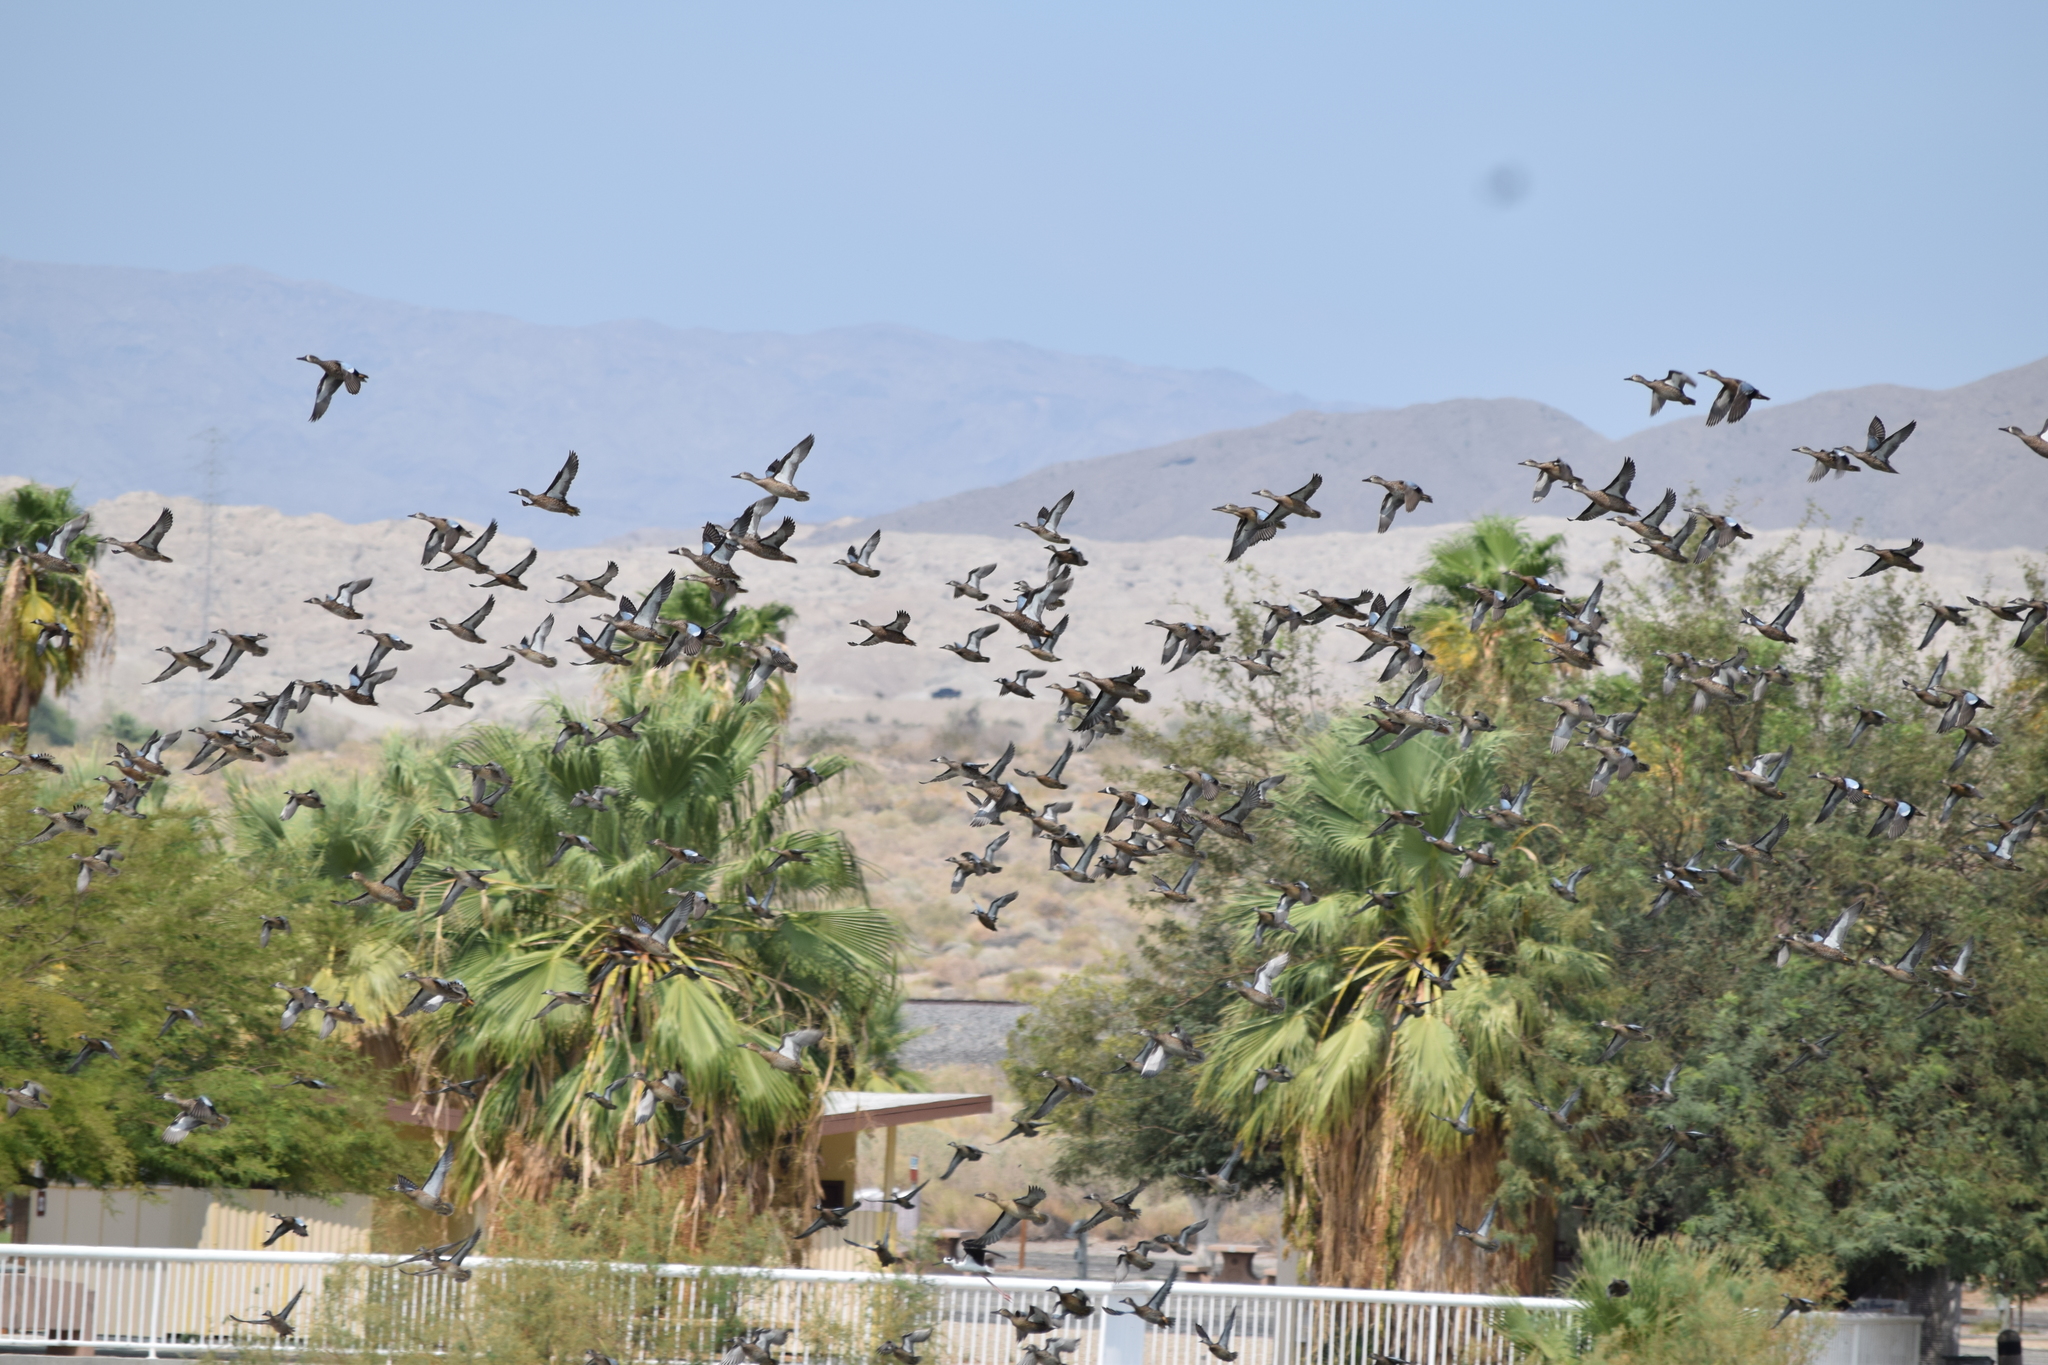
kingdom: Animalia
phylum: Chordata
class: Aves
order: Anseriformes
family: Anatidae
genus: Spatula
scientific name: Spatula discors
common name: Blue-winged teal
